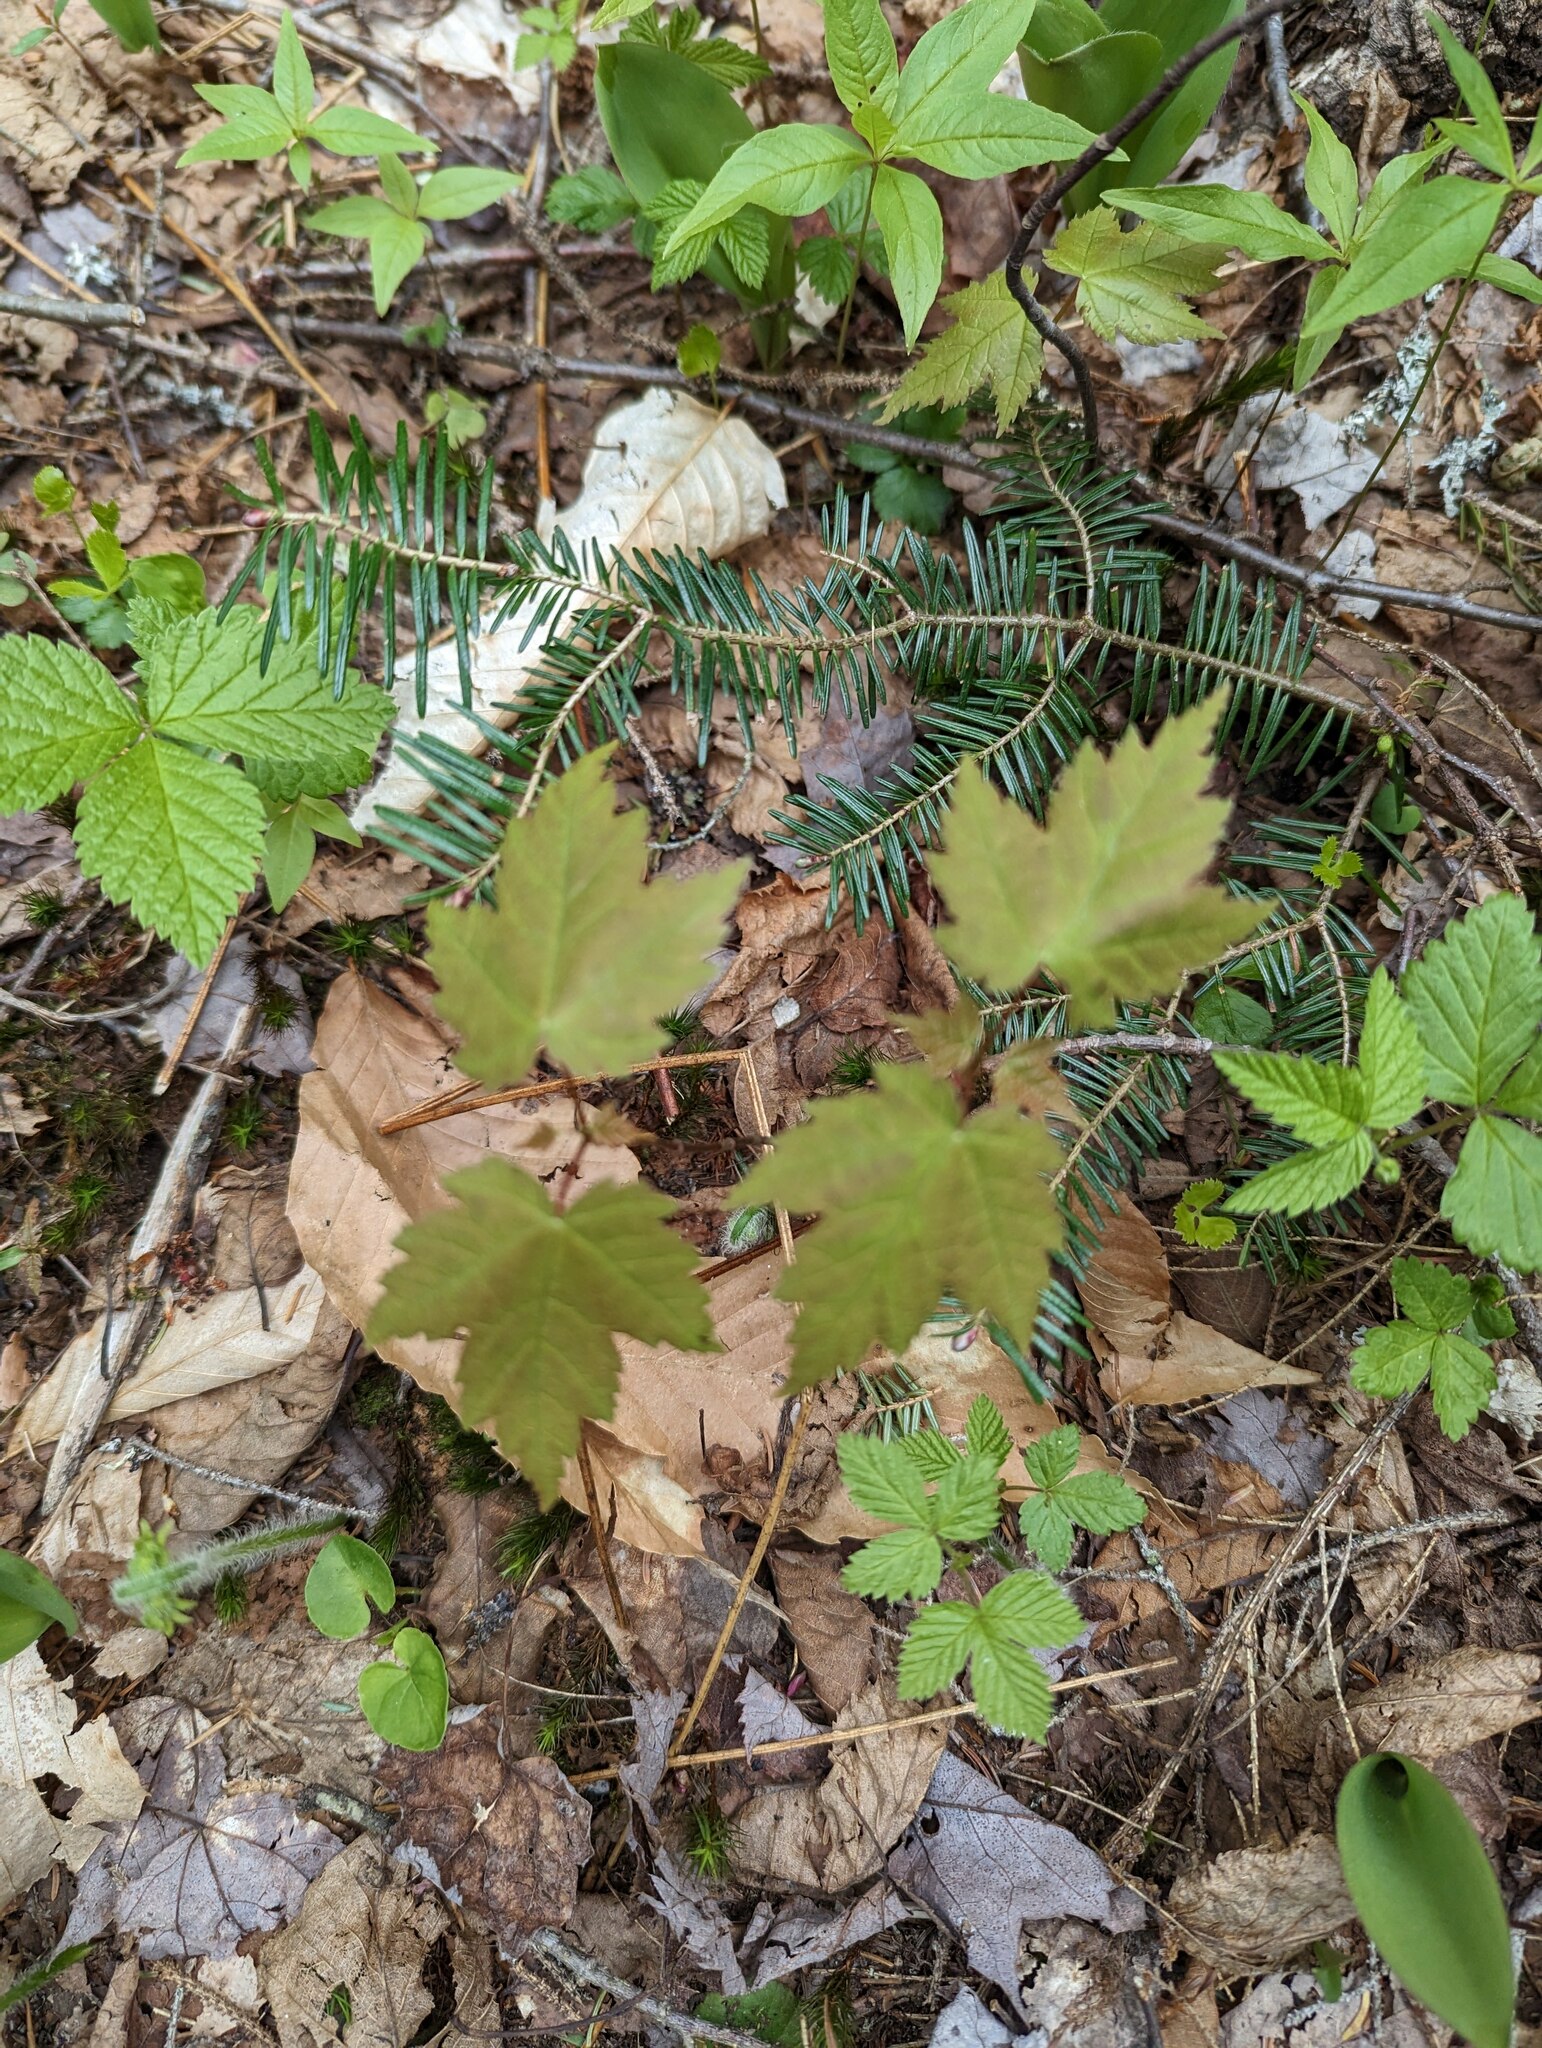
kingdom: Plantae
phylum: Tracheophyta
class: Pinopsida
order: Pinales
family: Pinaceae
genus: Abies
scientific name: Abies balsamea
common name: Balsam fir
